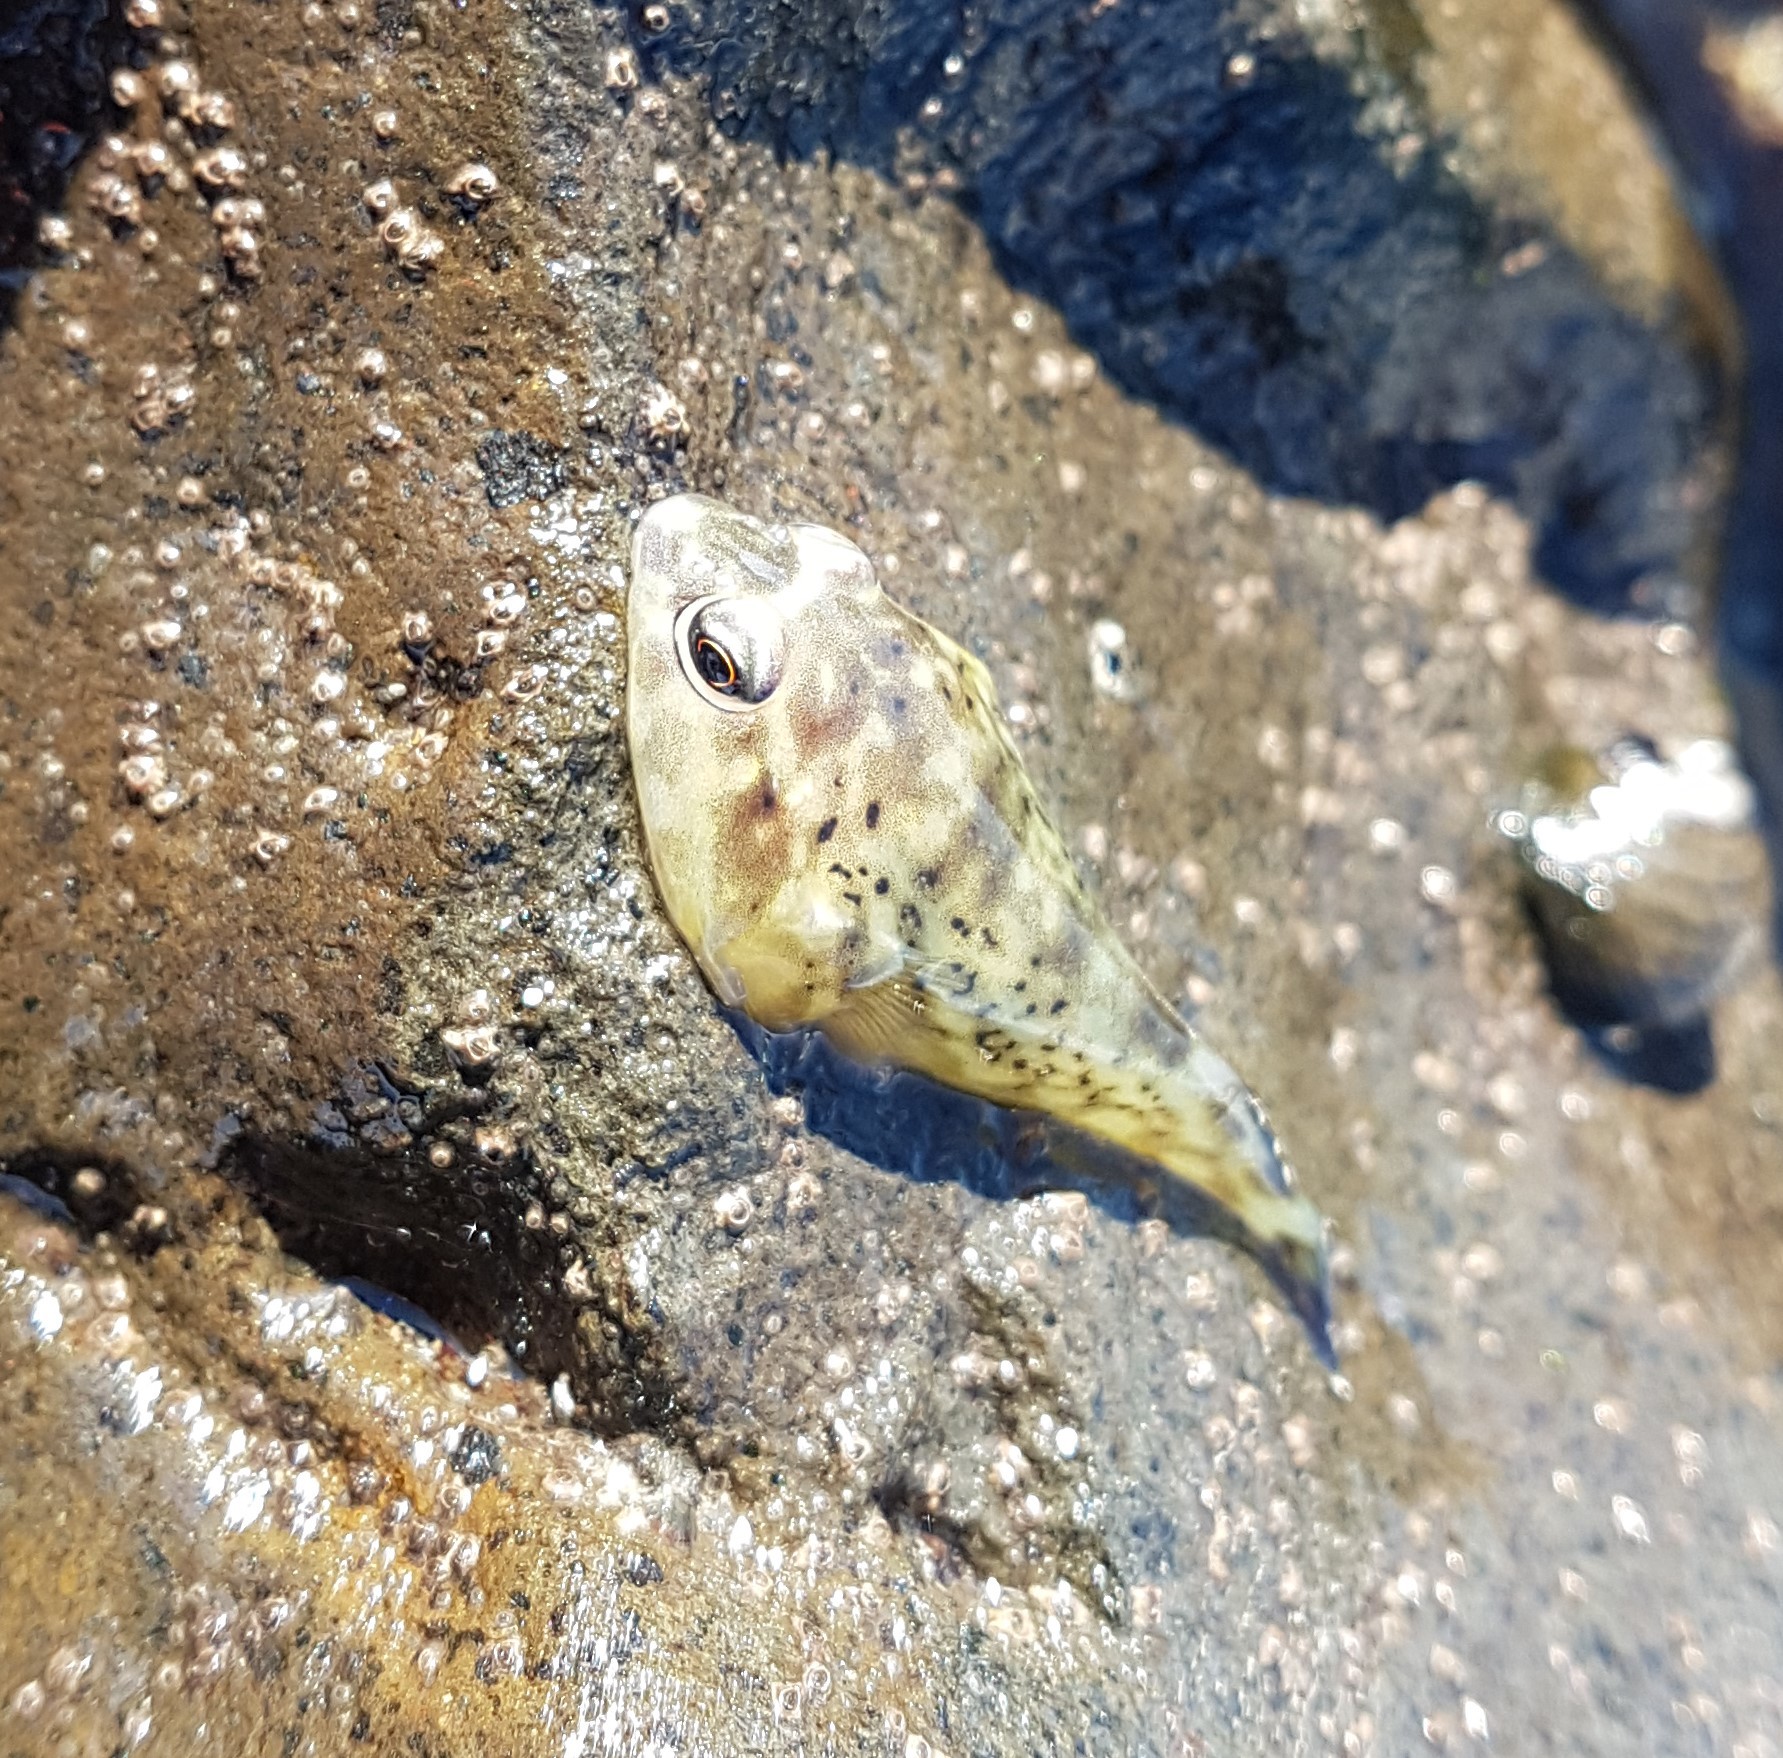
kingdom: Animalia
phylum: Chordata
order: Gobiesociformes
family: Gobiesocidae
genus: Diplocrepis
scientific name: Diplocrepis puniceus
